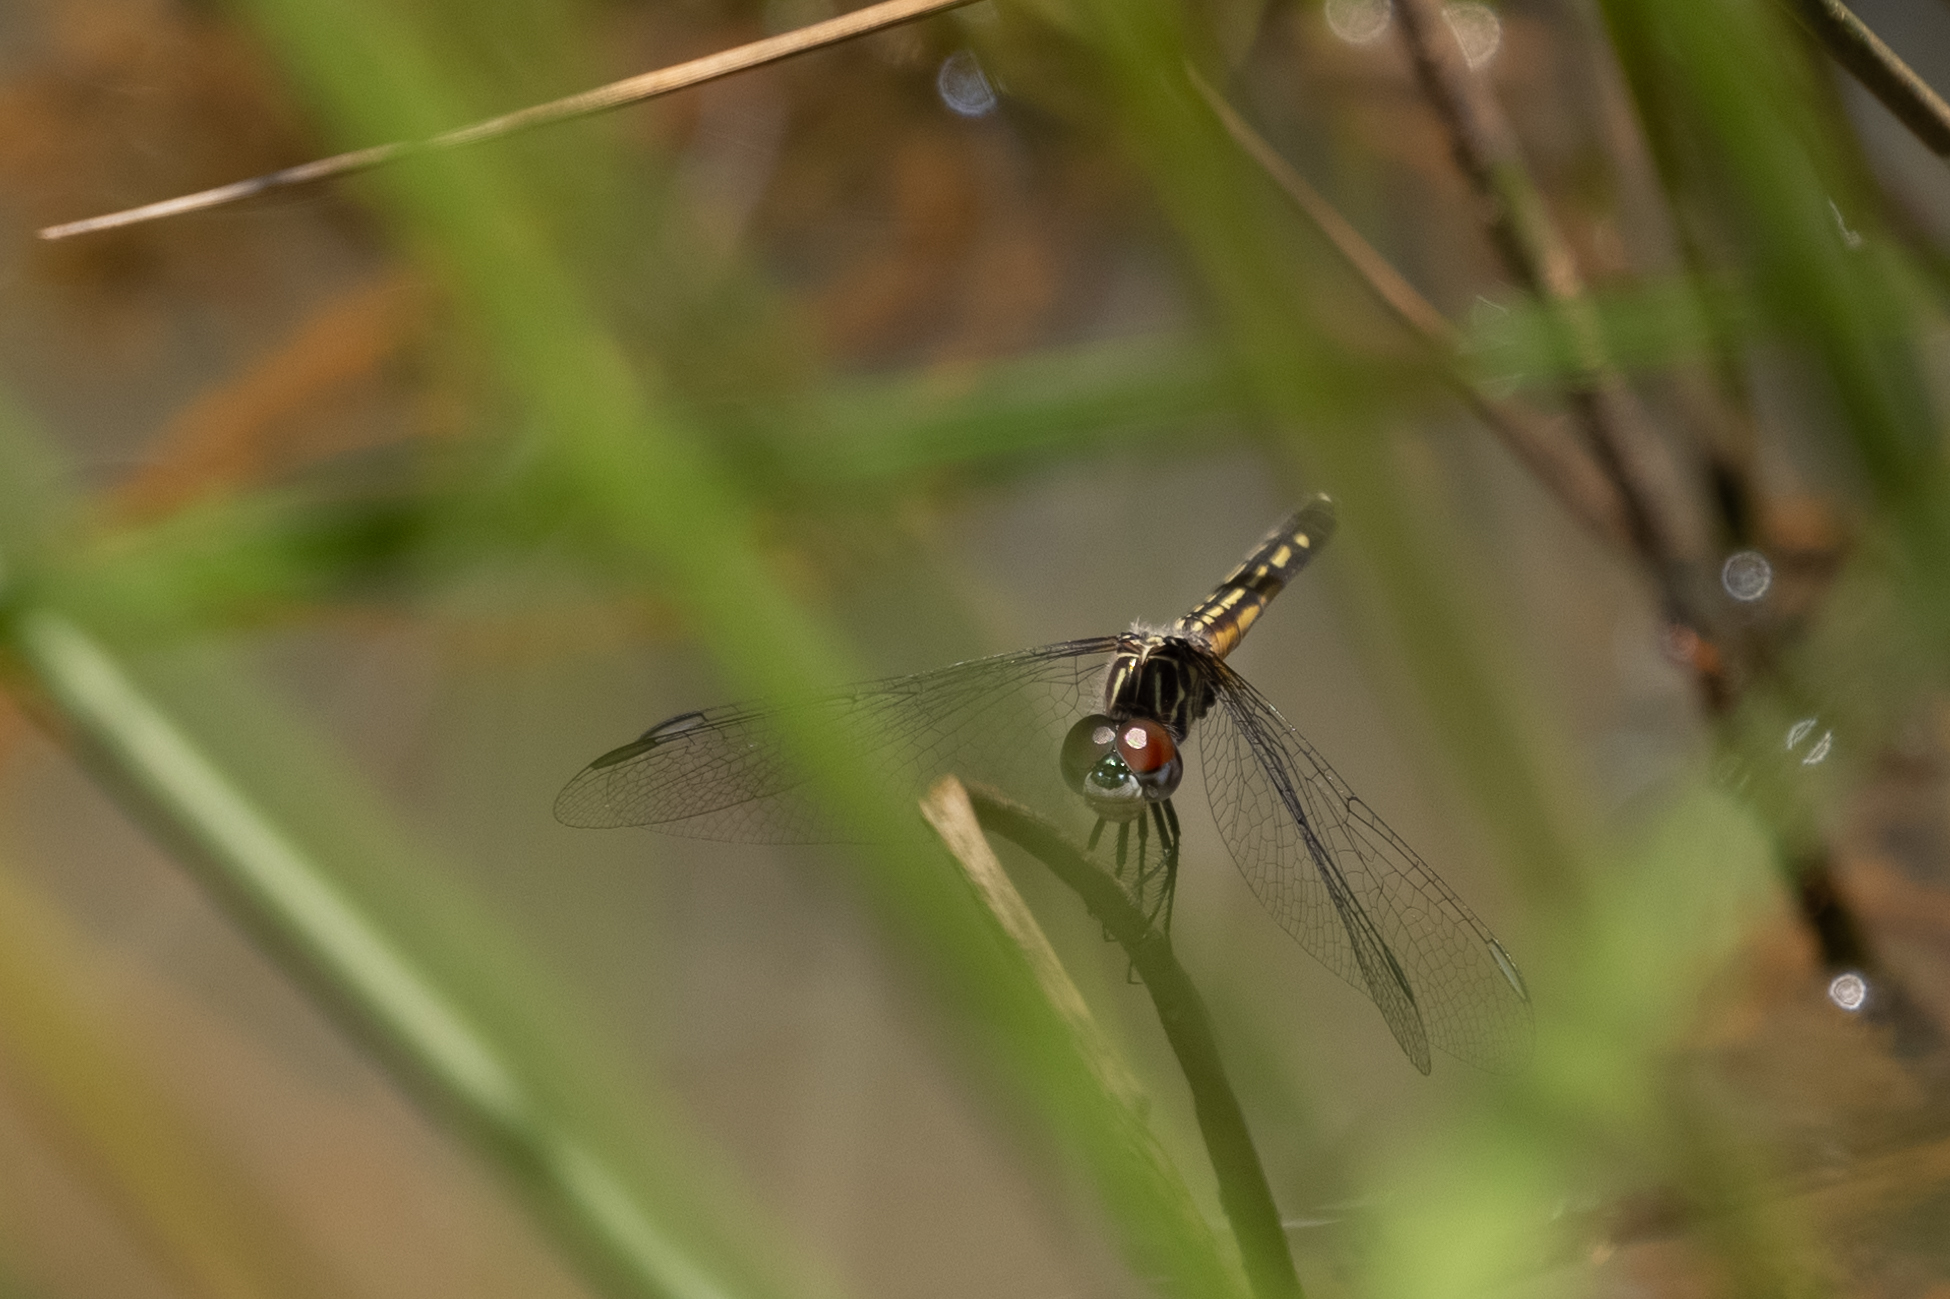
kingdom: Animalia
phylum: Arthropoda
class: Insecta
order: Odonata
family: Libellulidae
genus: Pachydiplax
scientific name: Pachydiplax longipennis
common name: Blue dasher
